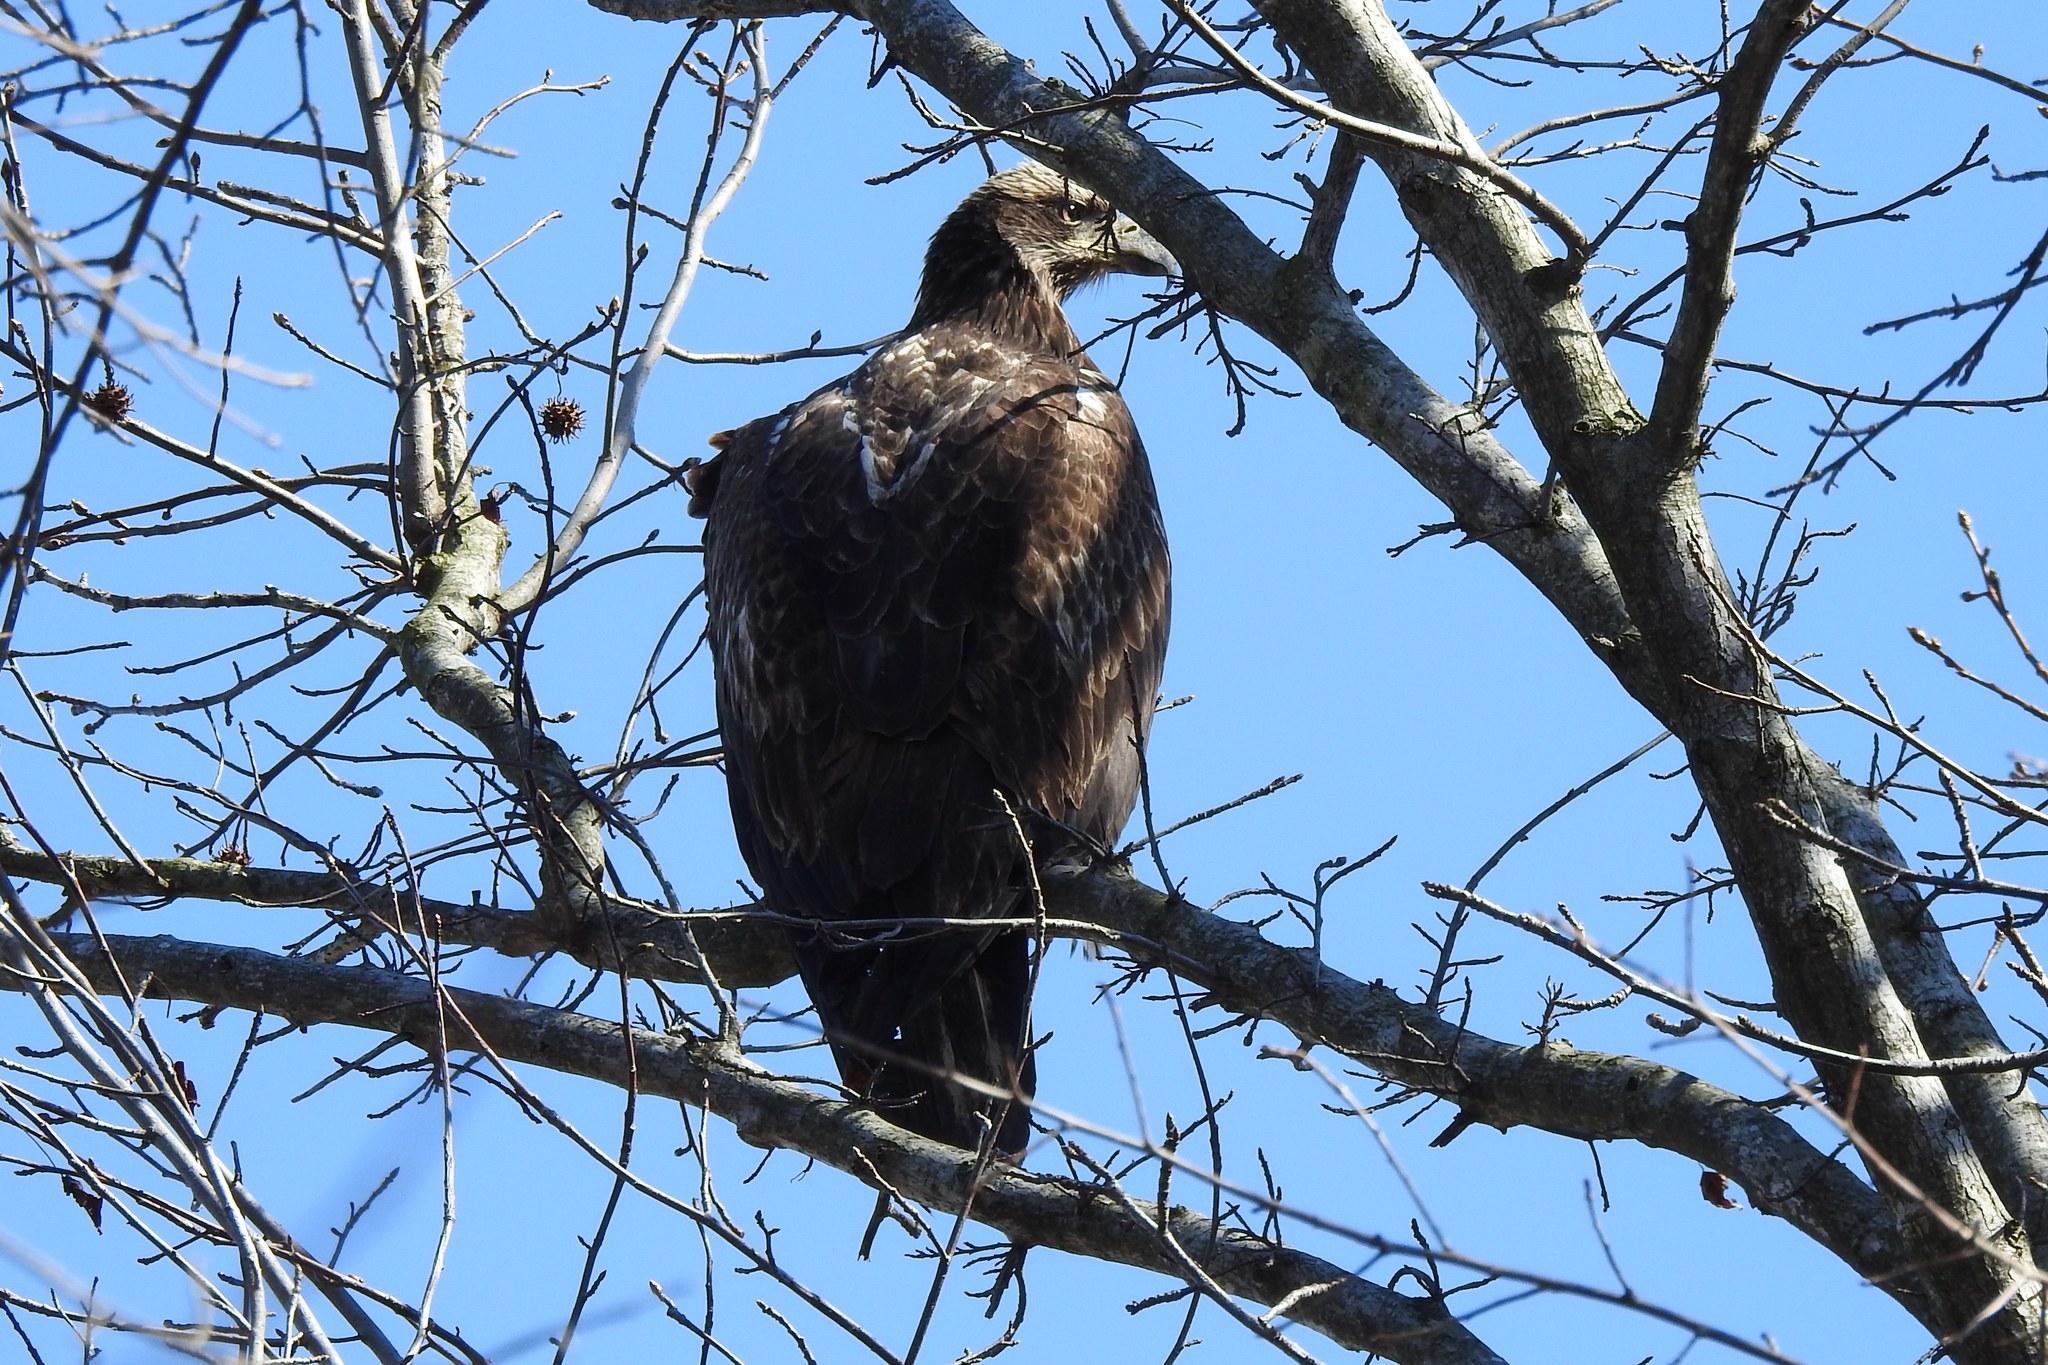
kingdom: Animalia
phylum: Chordata
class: Aves
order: Accipitriformes
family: Accipitridae
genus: Haliaeetus
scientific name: Haliaeetus leucocephalus
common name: Bald eagle
